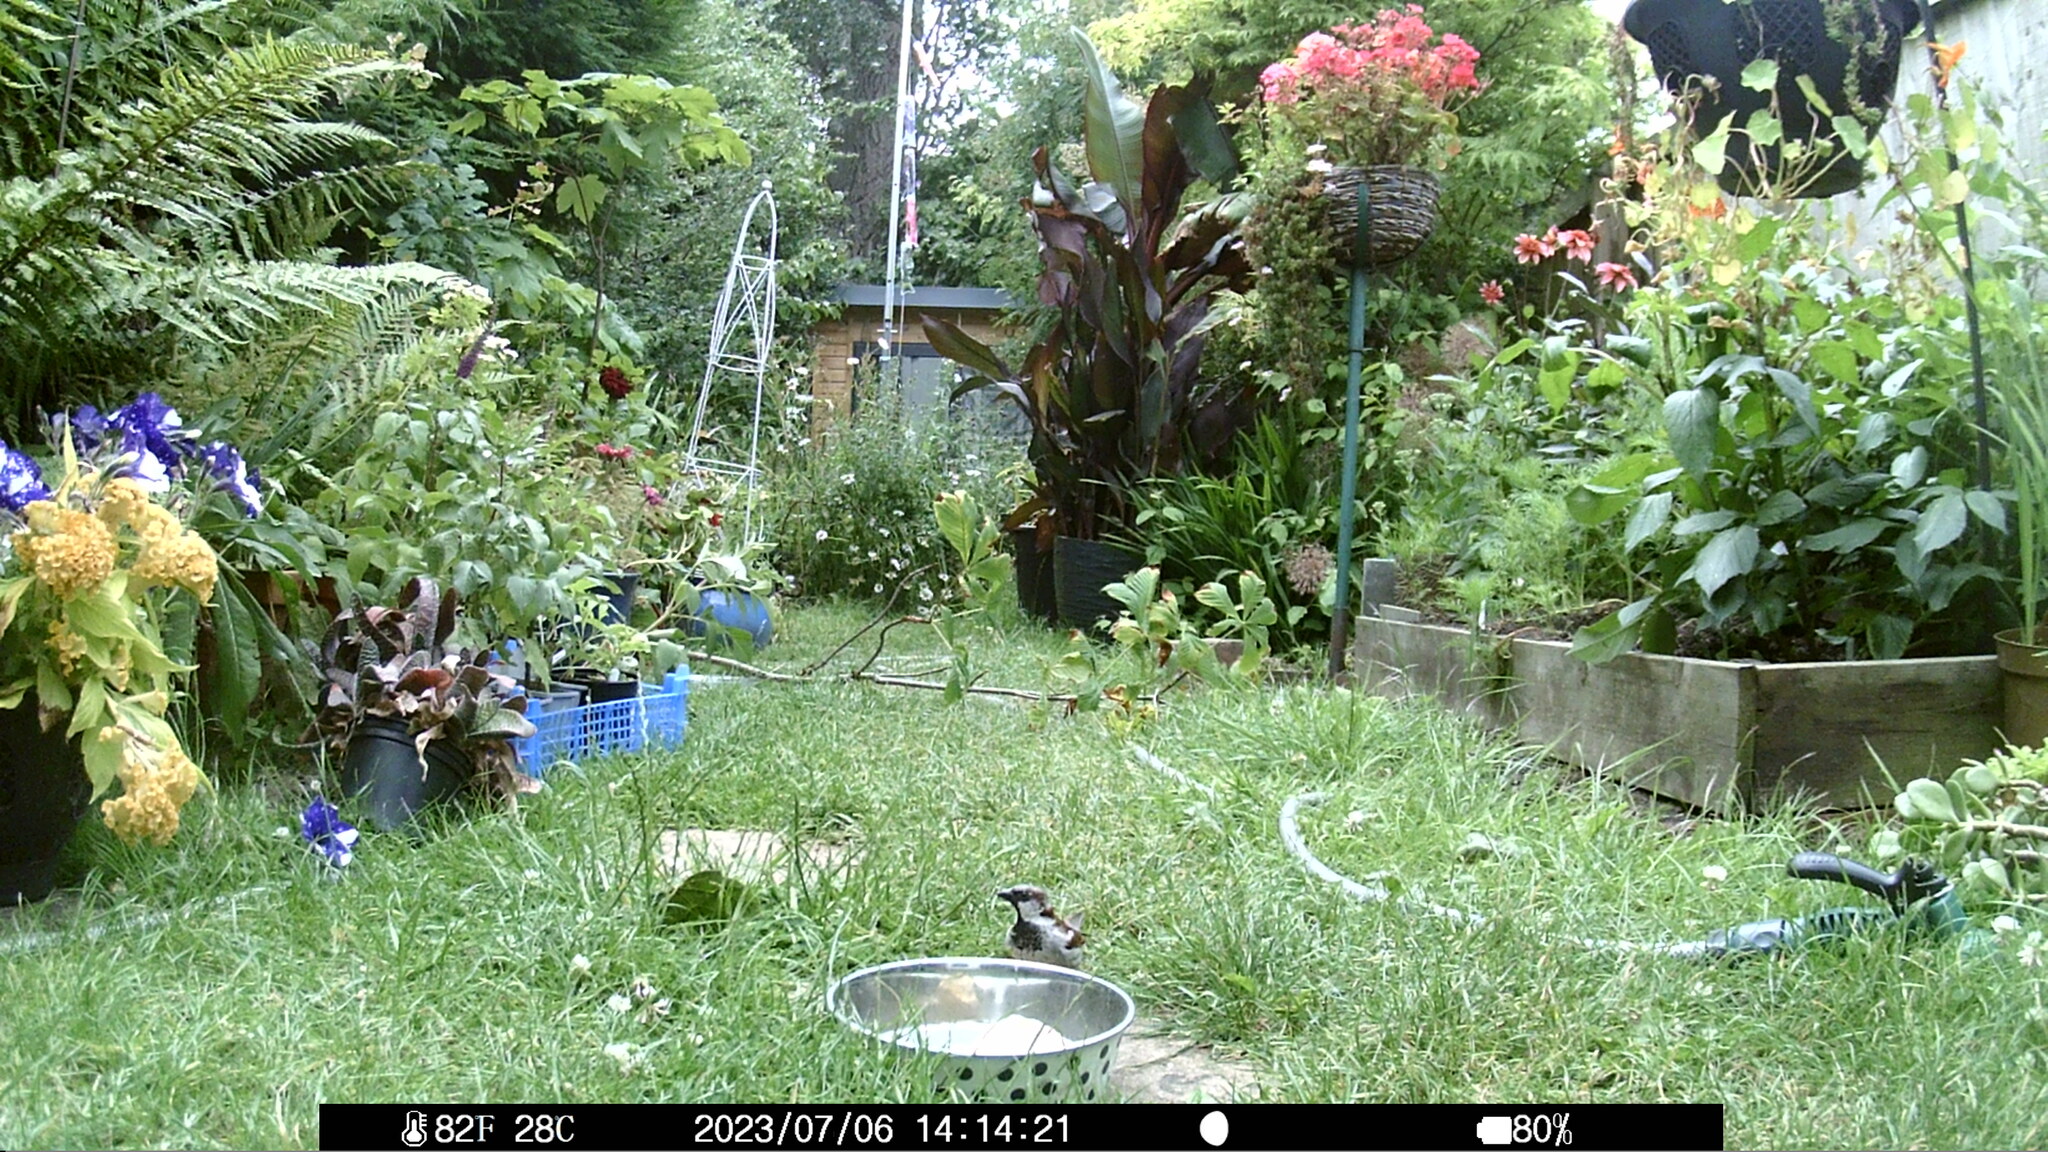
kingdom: Animalia
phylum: Chordata
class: Aves
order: Passeriformes
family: Passeridae
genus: Passer
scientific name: Passer domesticus
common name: House sparrow
